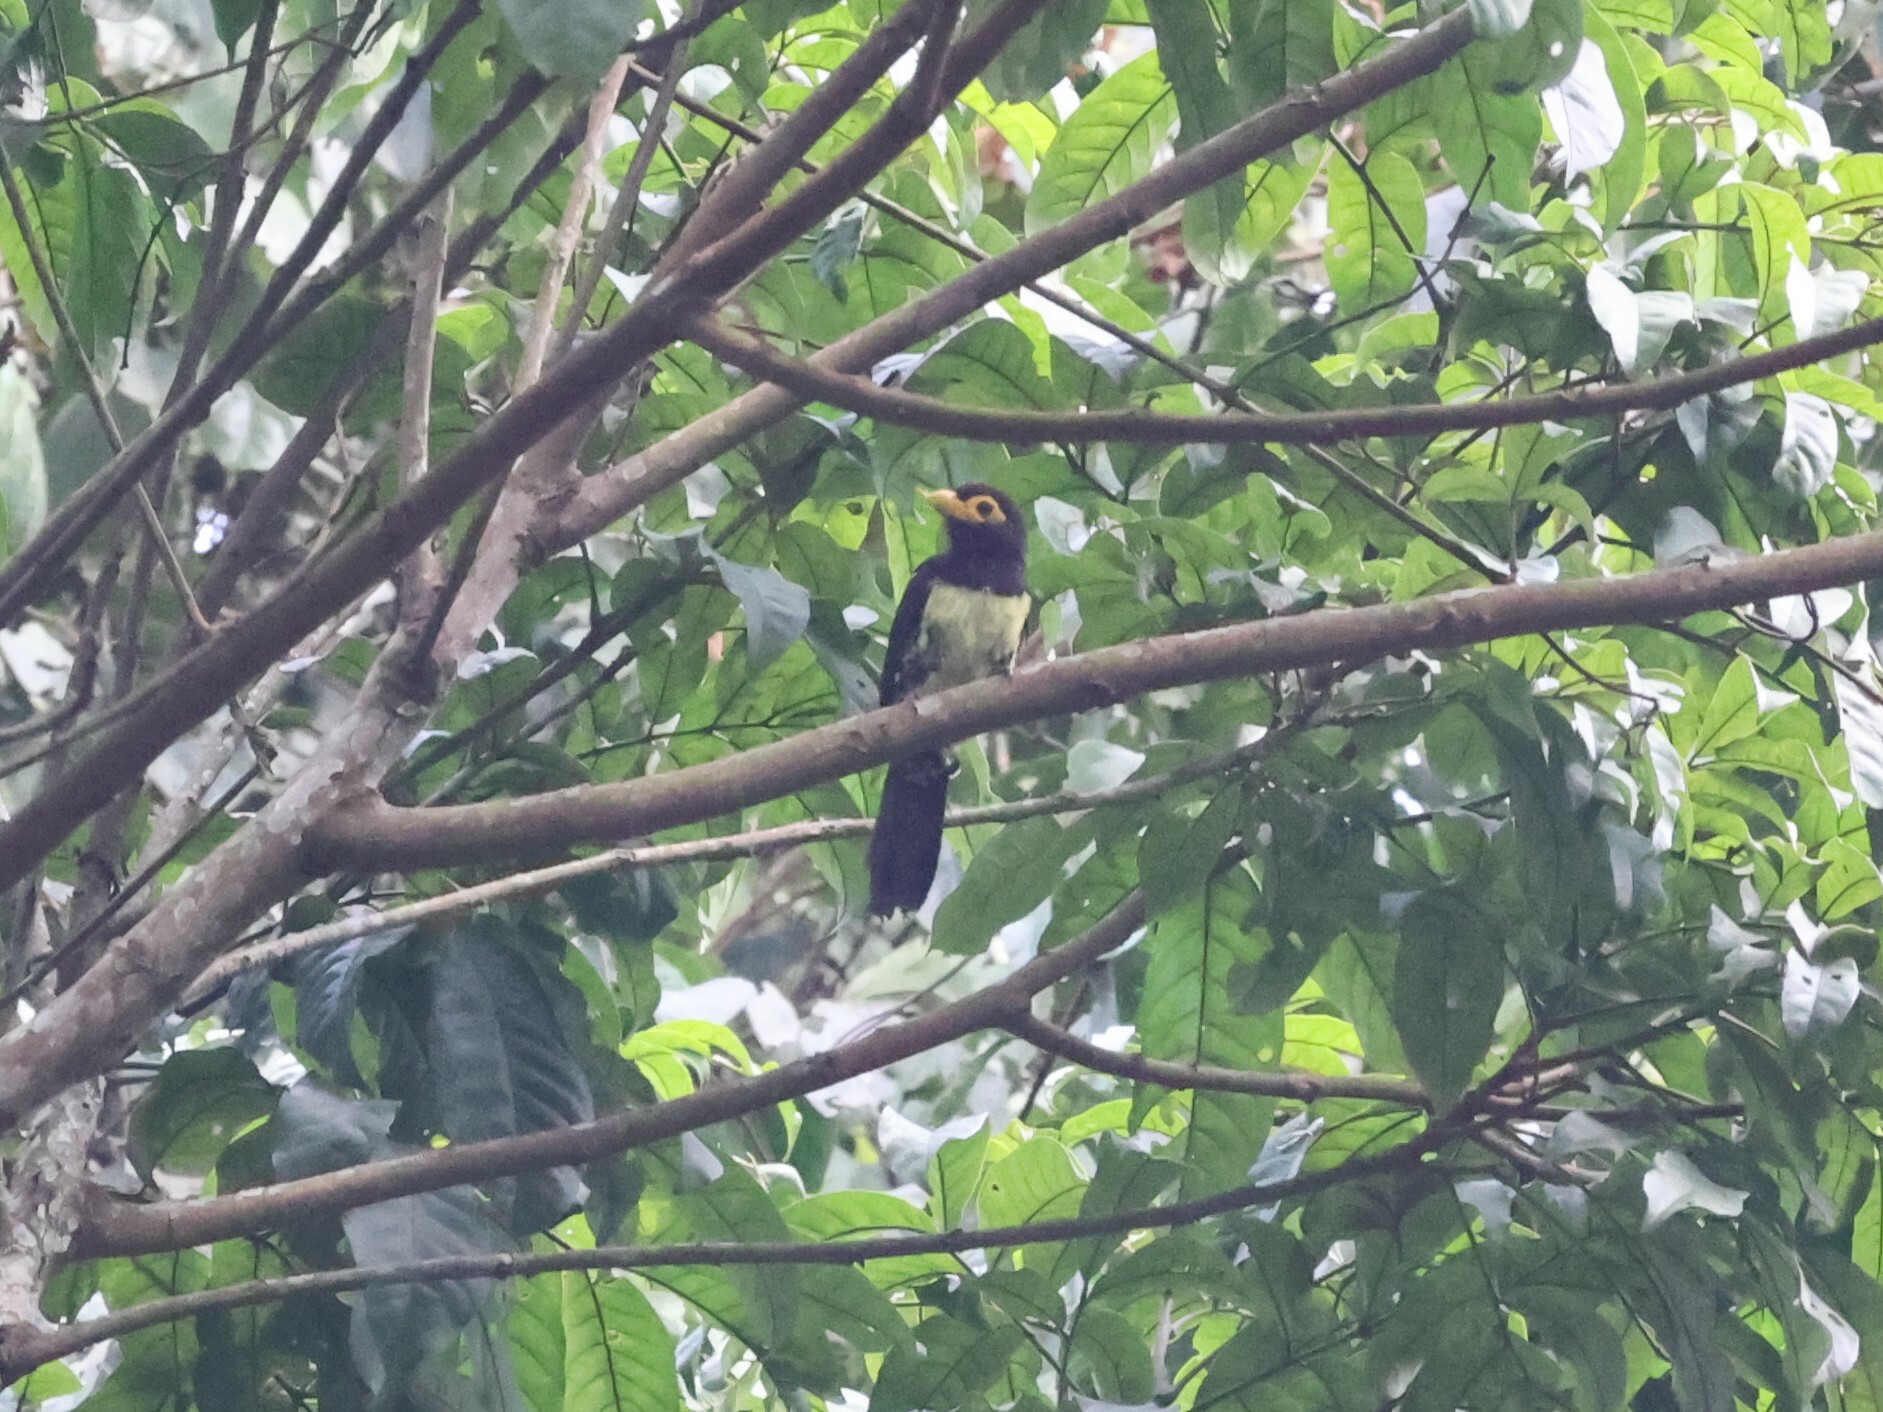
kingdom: Animalia
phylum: Chordata
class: Aves
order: Piciformes
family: Lybiidae
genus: Trachyphonus
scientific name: Trachyphonus purpuratus
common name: Yellow-billed barbet
